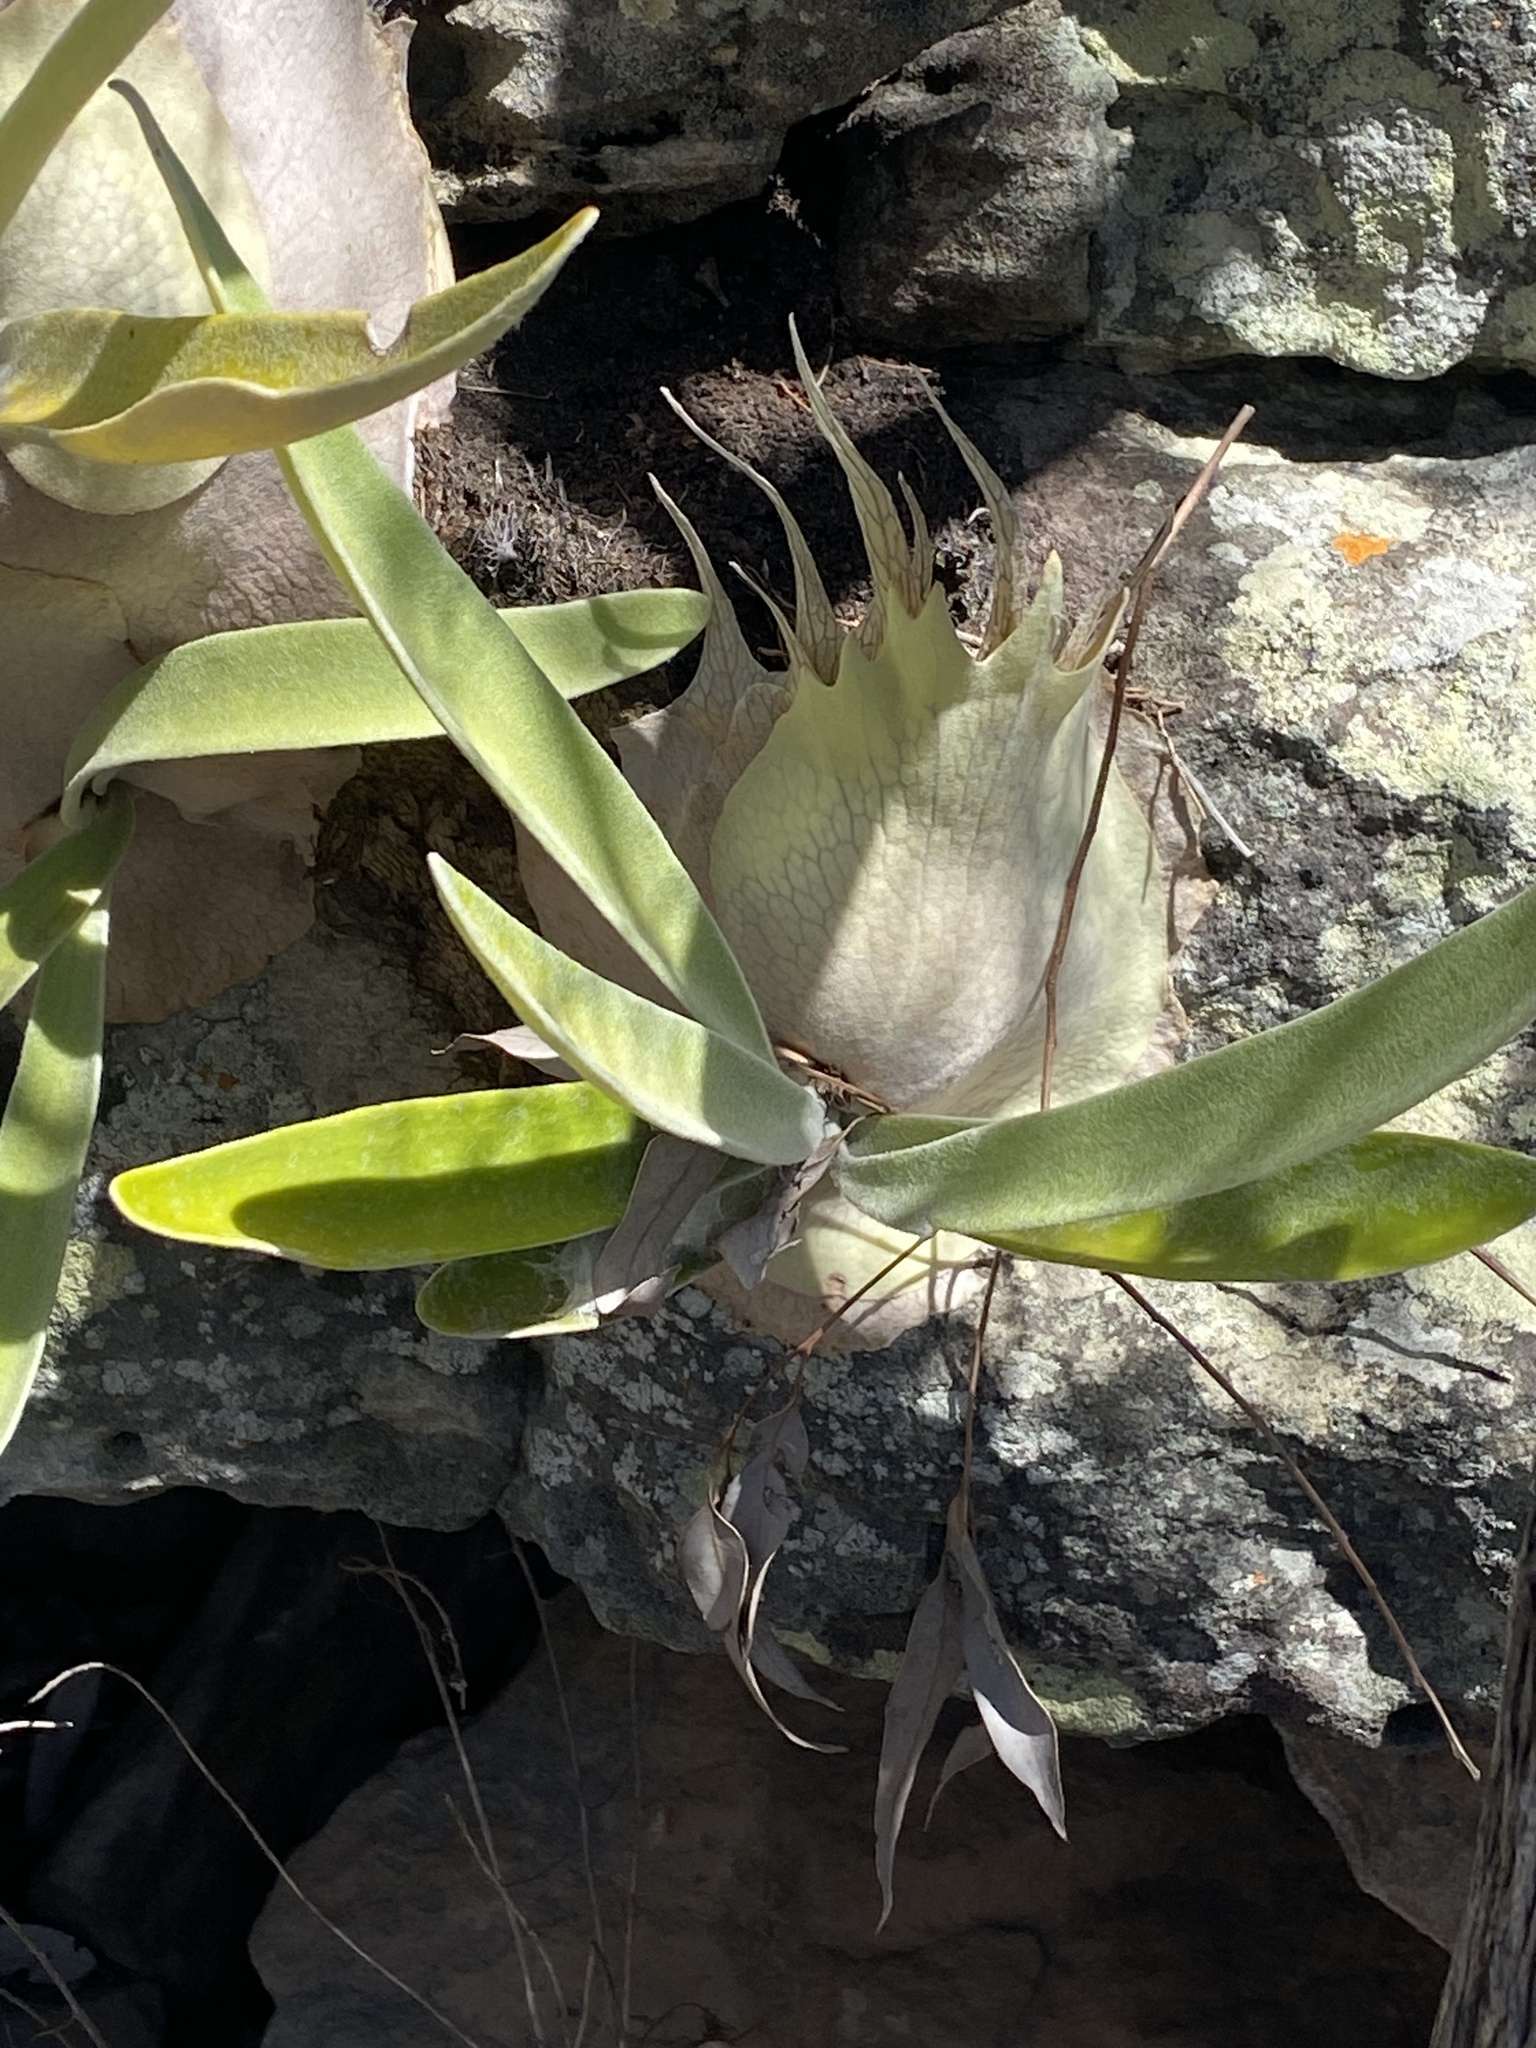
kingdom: Plantae
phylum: Tracheophyta
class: Polypodiopsida
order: Polypodiales
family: Polypodiaceae
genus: Platycerium
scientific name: Platycerium veitchii
